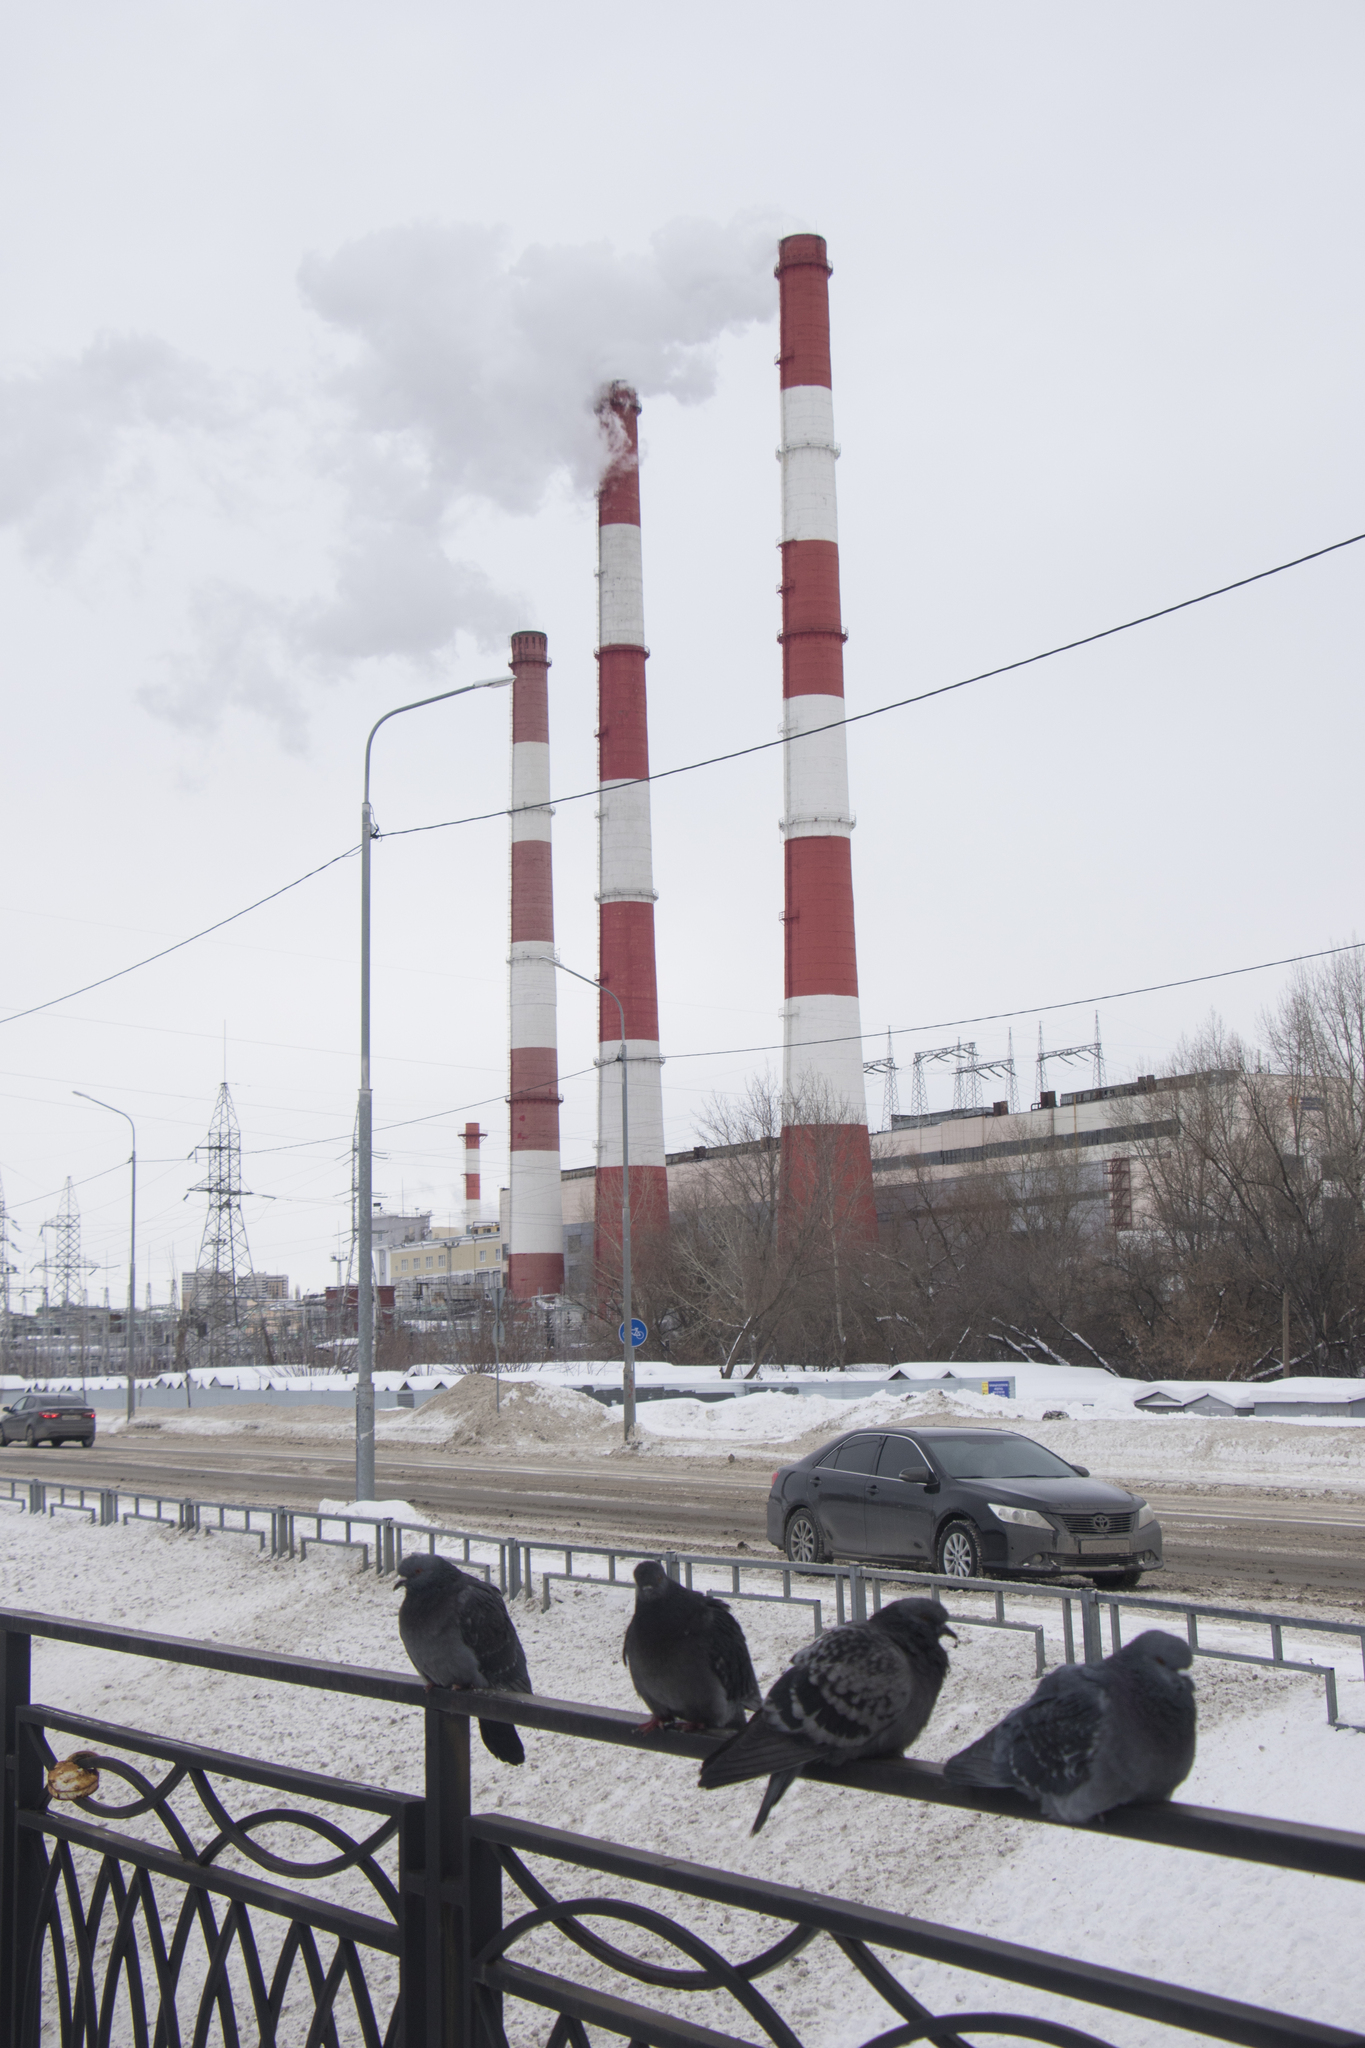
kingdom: Animalia
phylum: Chordata
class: Aves
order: Columbiformes
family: Columbidae
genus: Columba
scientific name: Columba livia
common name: Rock pigeon
